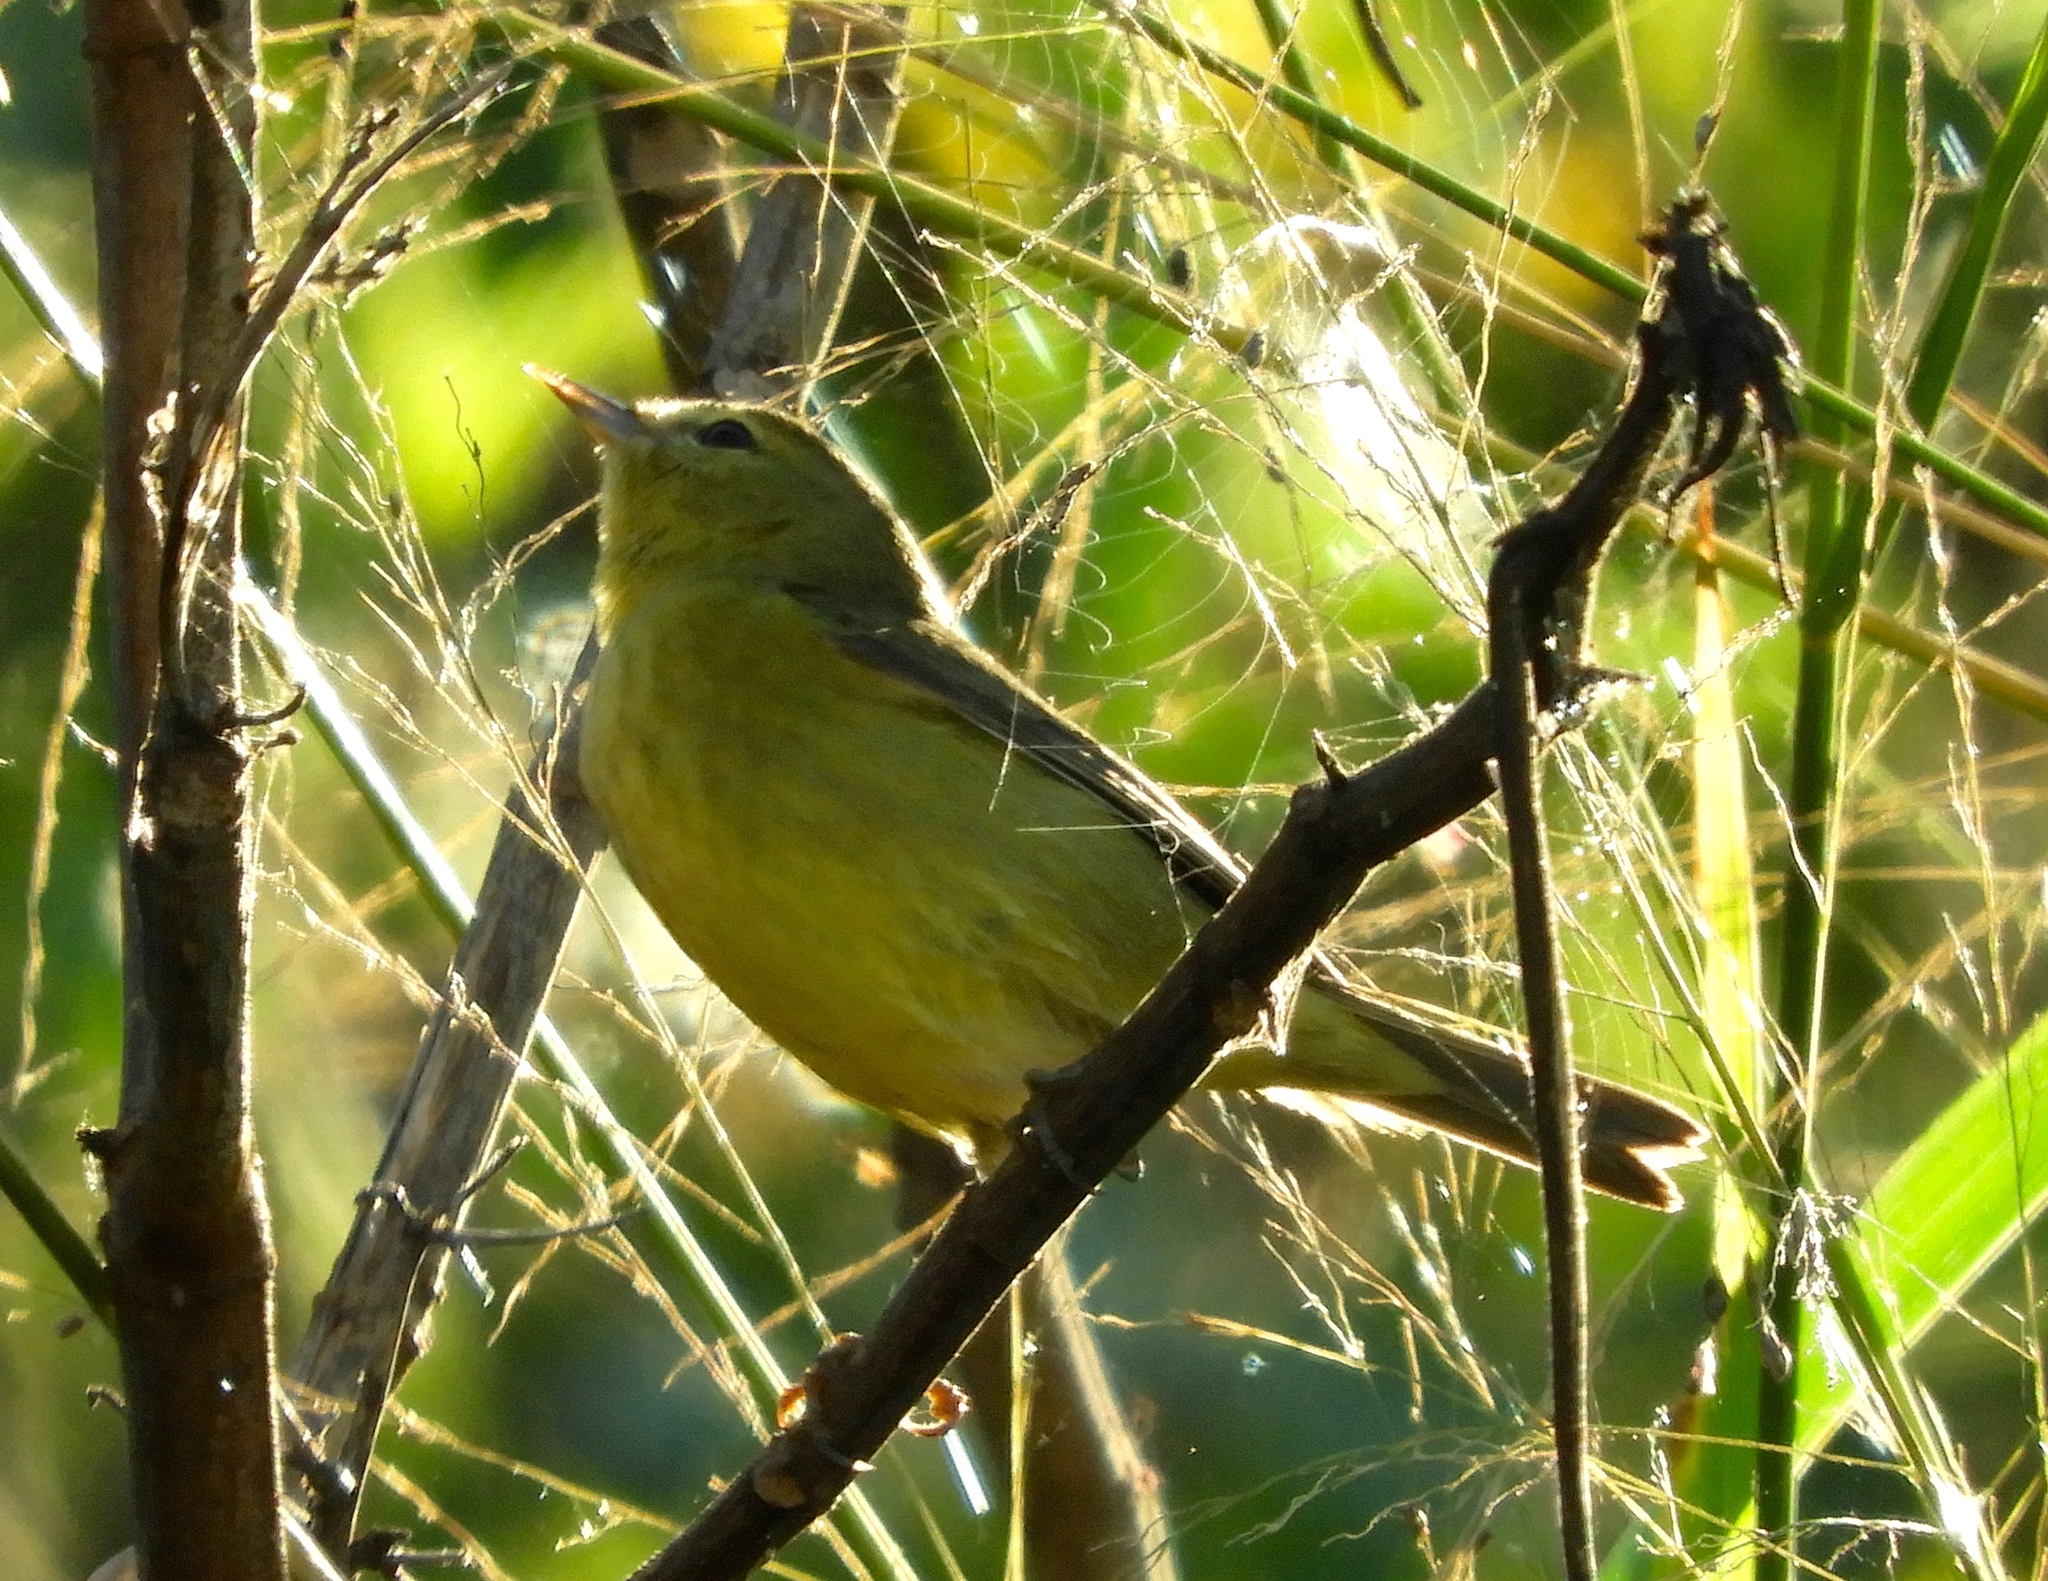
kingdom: Animalia
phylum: Chordata
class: Aves
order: Passeriformes
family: Parulidae
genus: Leiothlypis
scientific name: Leiothlypis celata
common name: Orange-crowned warbler
